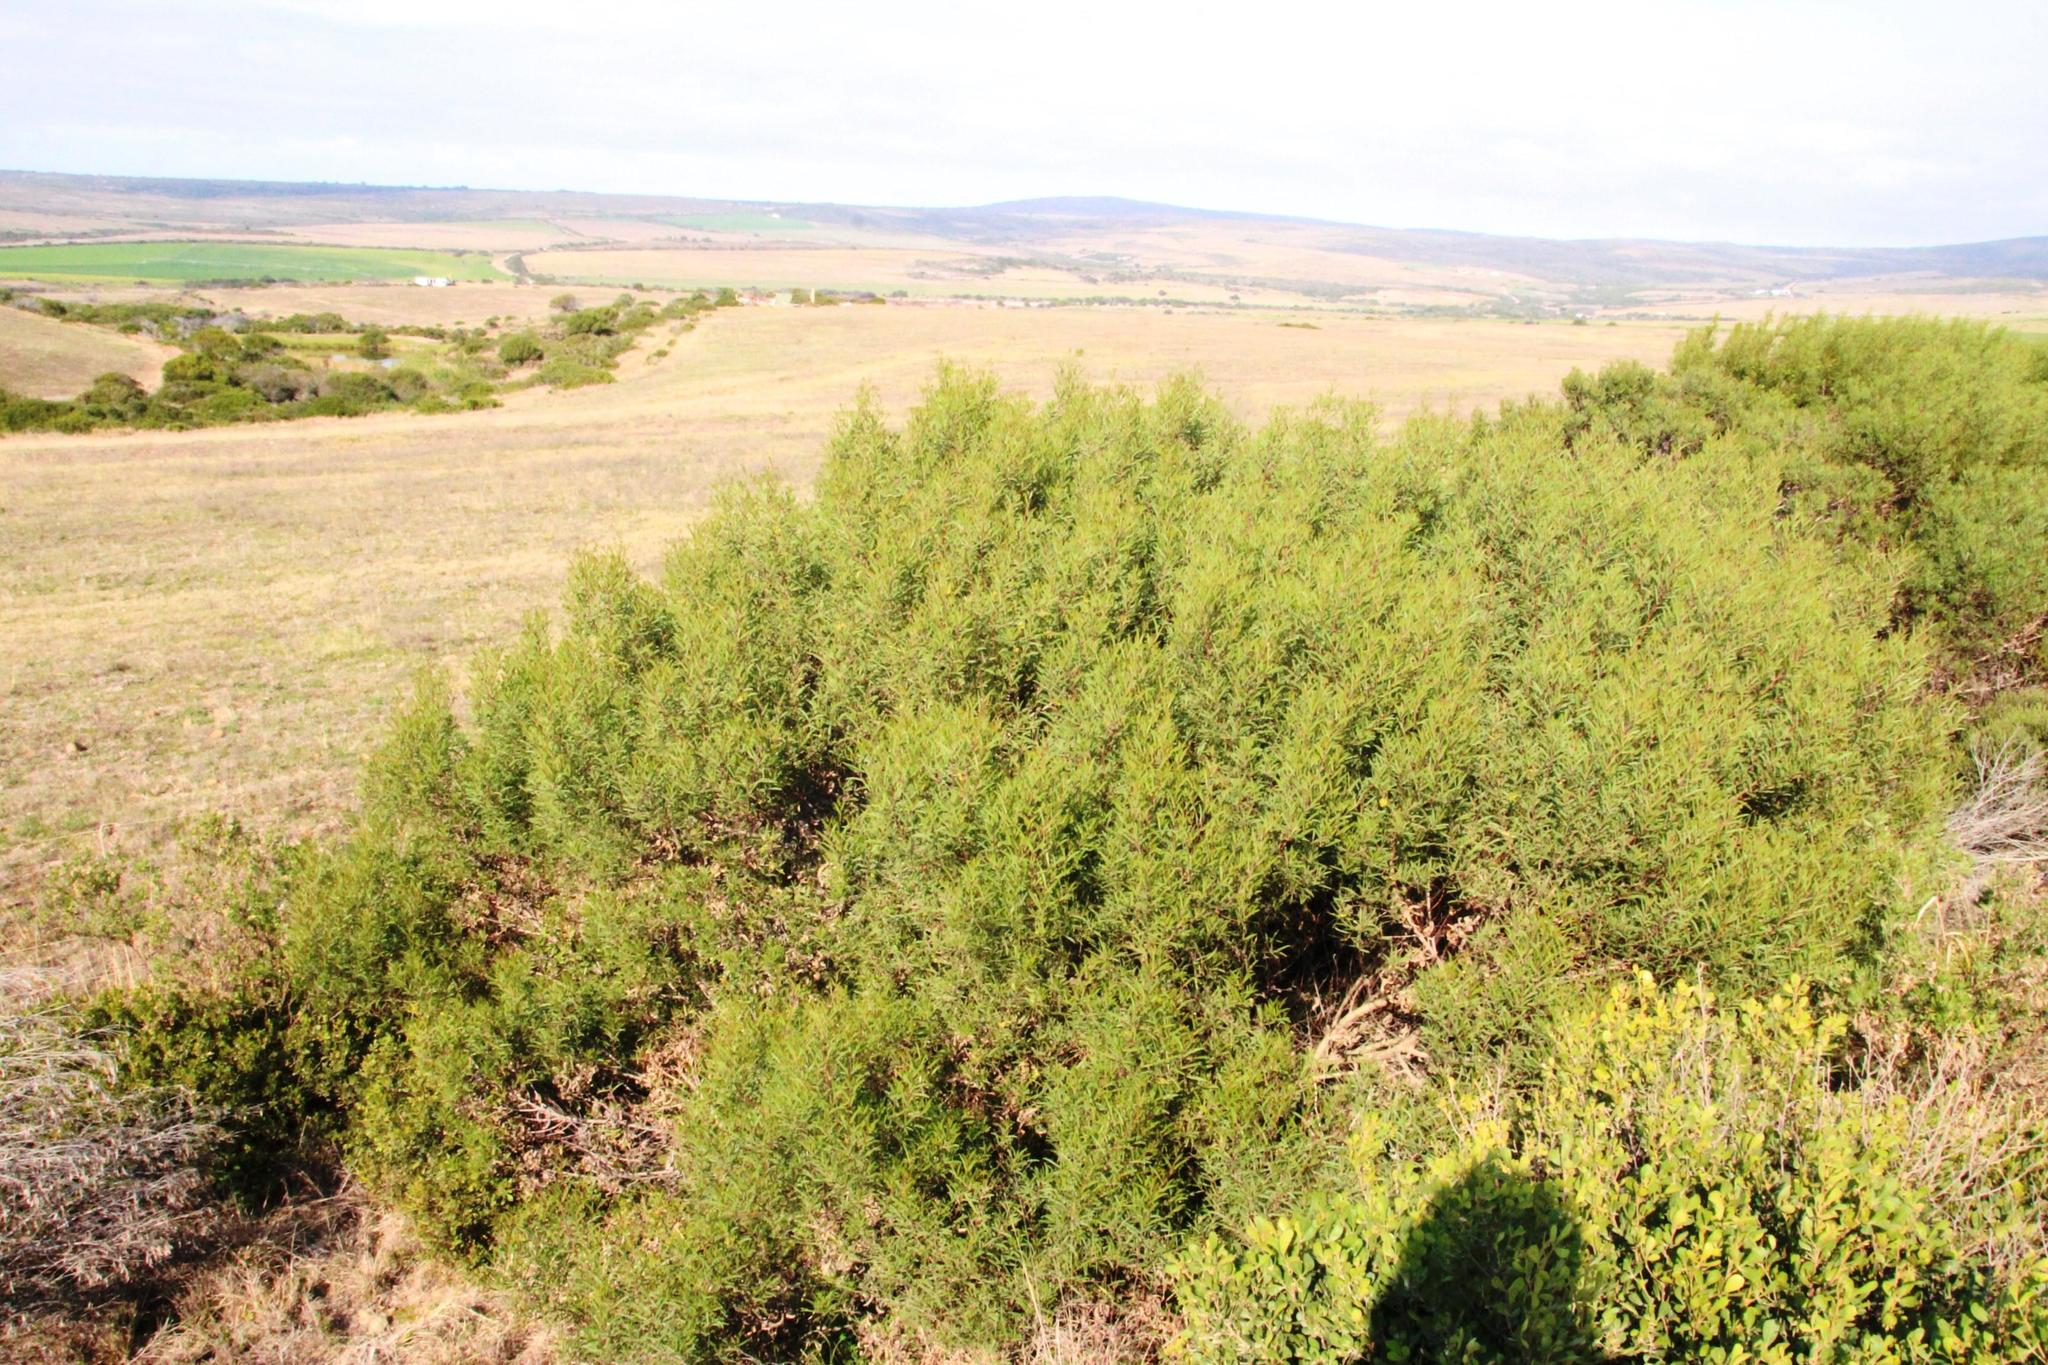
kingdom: Plantae
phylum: Tracheophyta
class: Magnoliopsida
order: Fabales
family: Fabaceae
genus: Acacia
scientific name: Acacia cyclops
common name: Coastal wattle
